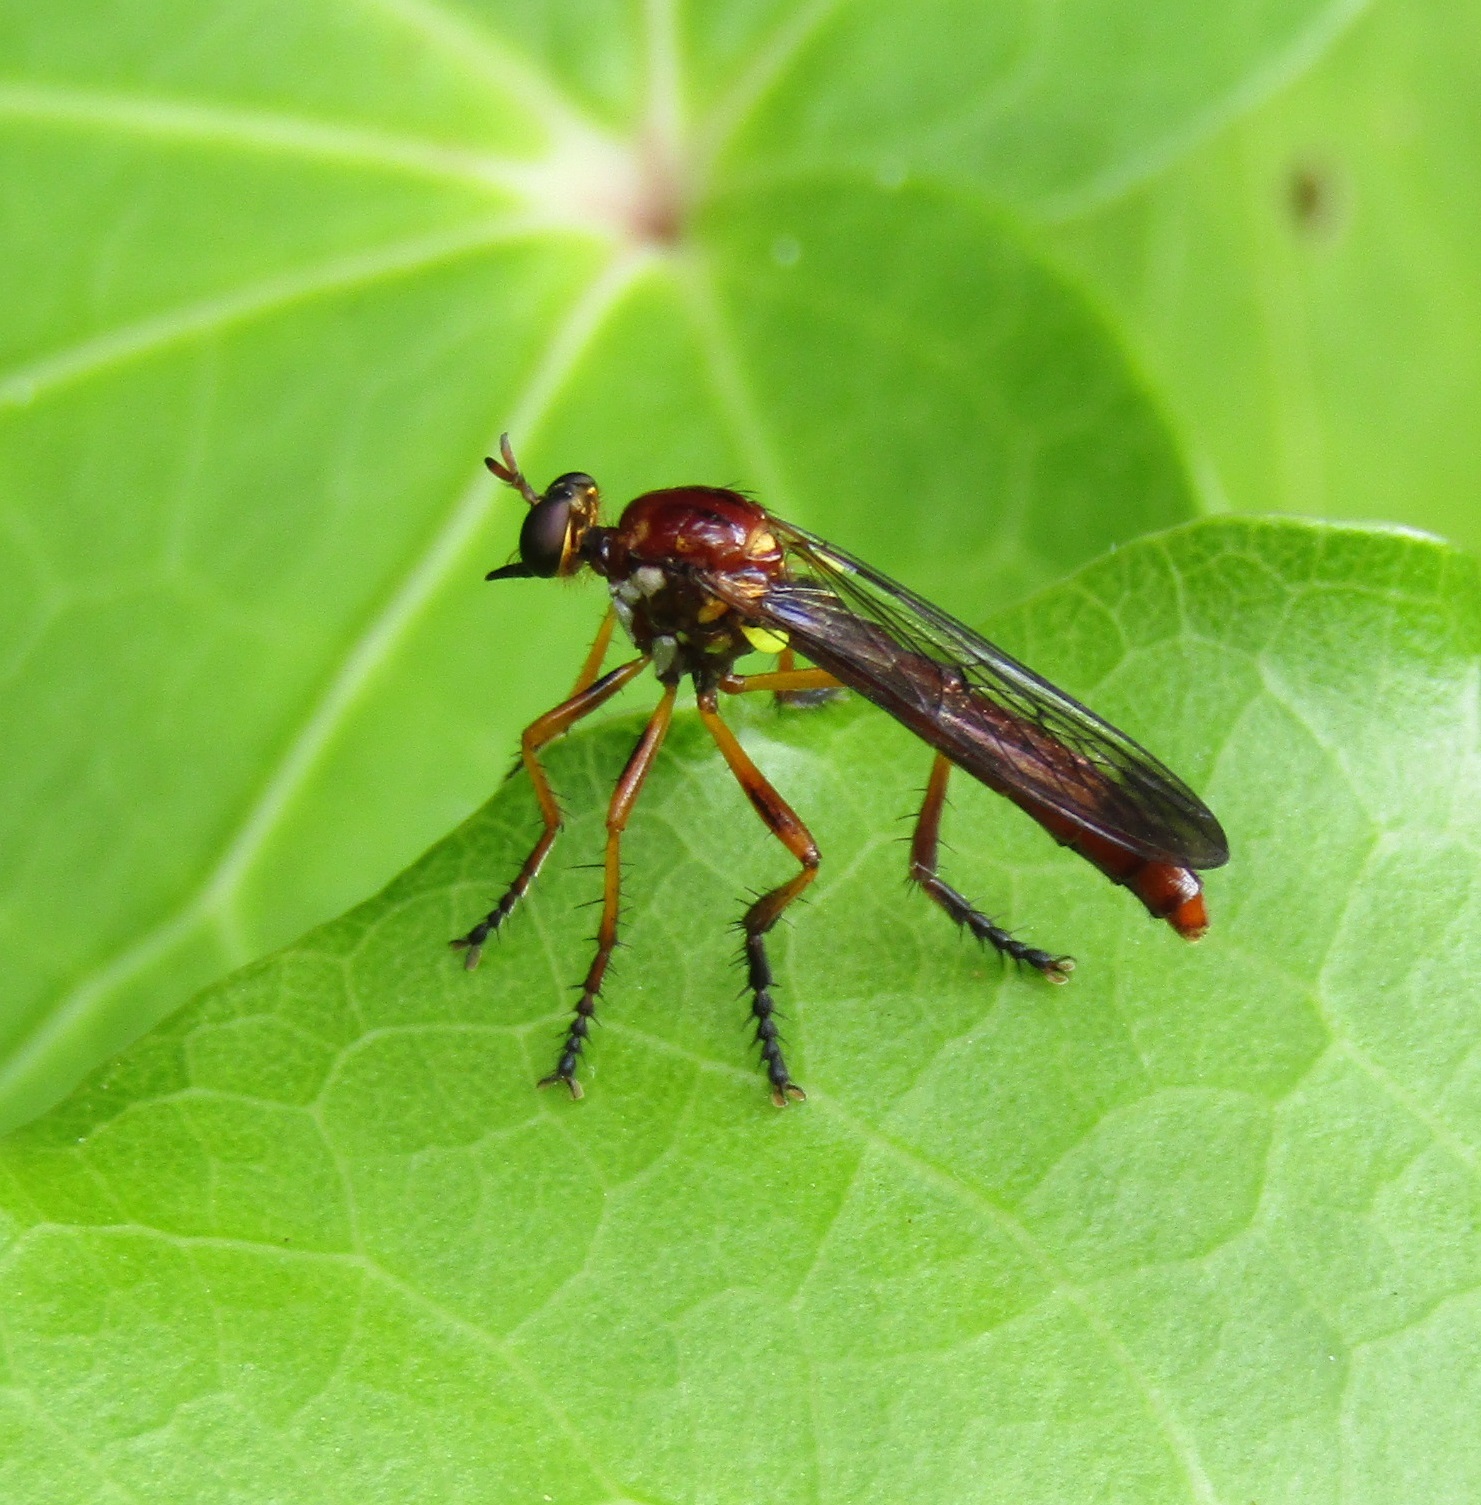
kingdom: Animalia
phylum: Arthropoda
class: Insecta
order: Diptera
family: Asilidae
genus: Saropogon
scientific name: Saropogon antipodus
